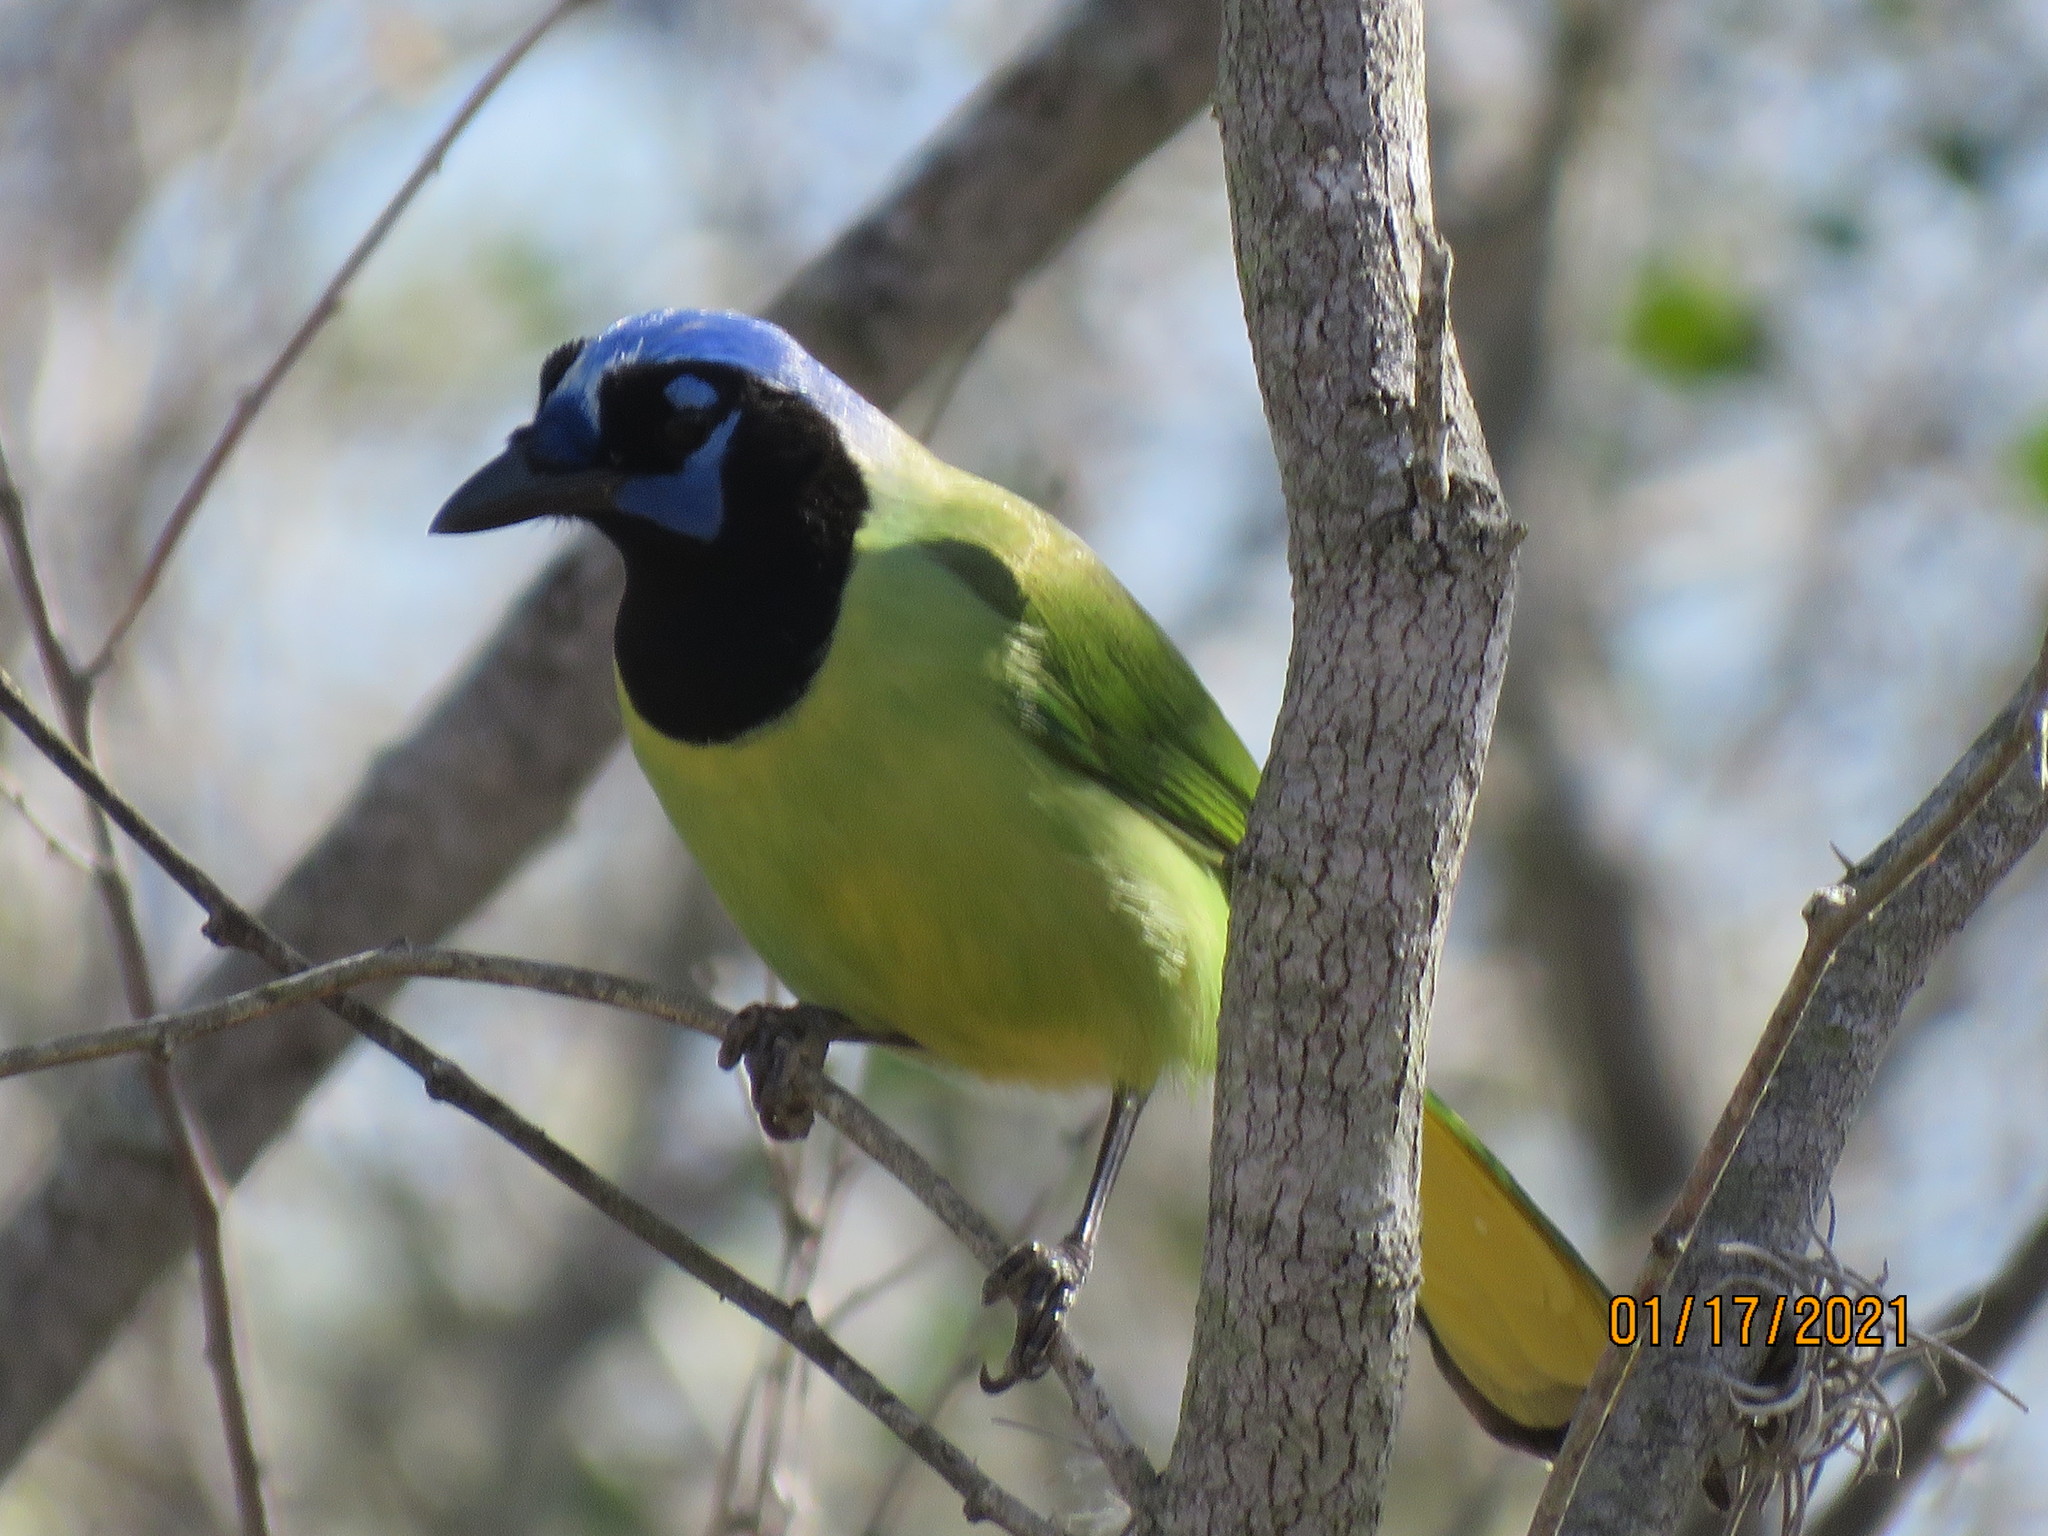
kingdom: Animalia
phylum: Chordata
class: Aves
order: Passeriformes
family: Corvidae
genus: Cyanocorax
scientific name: Cyanocorax yncas
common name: Green jay
